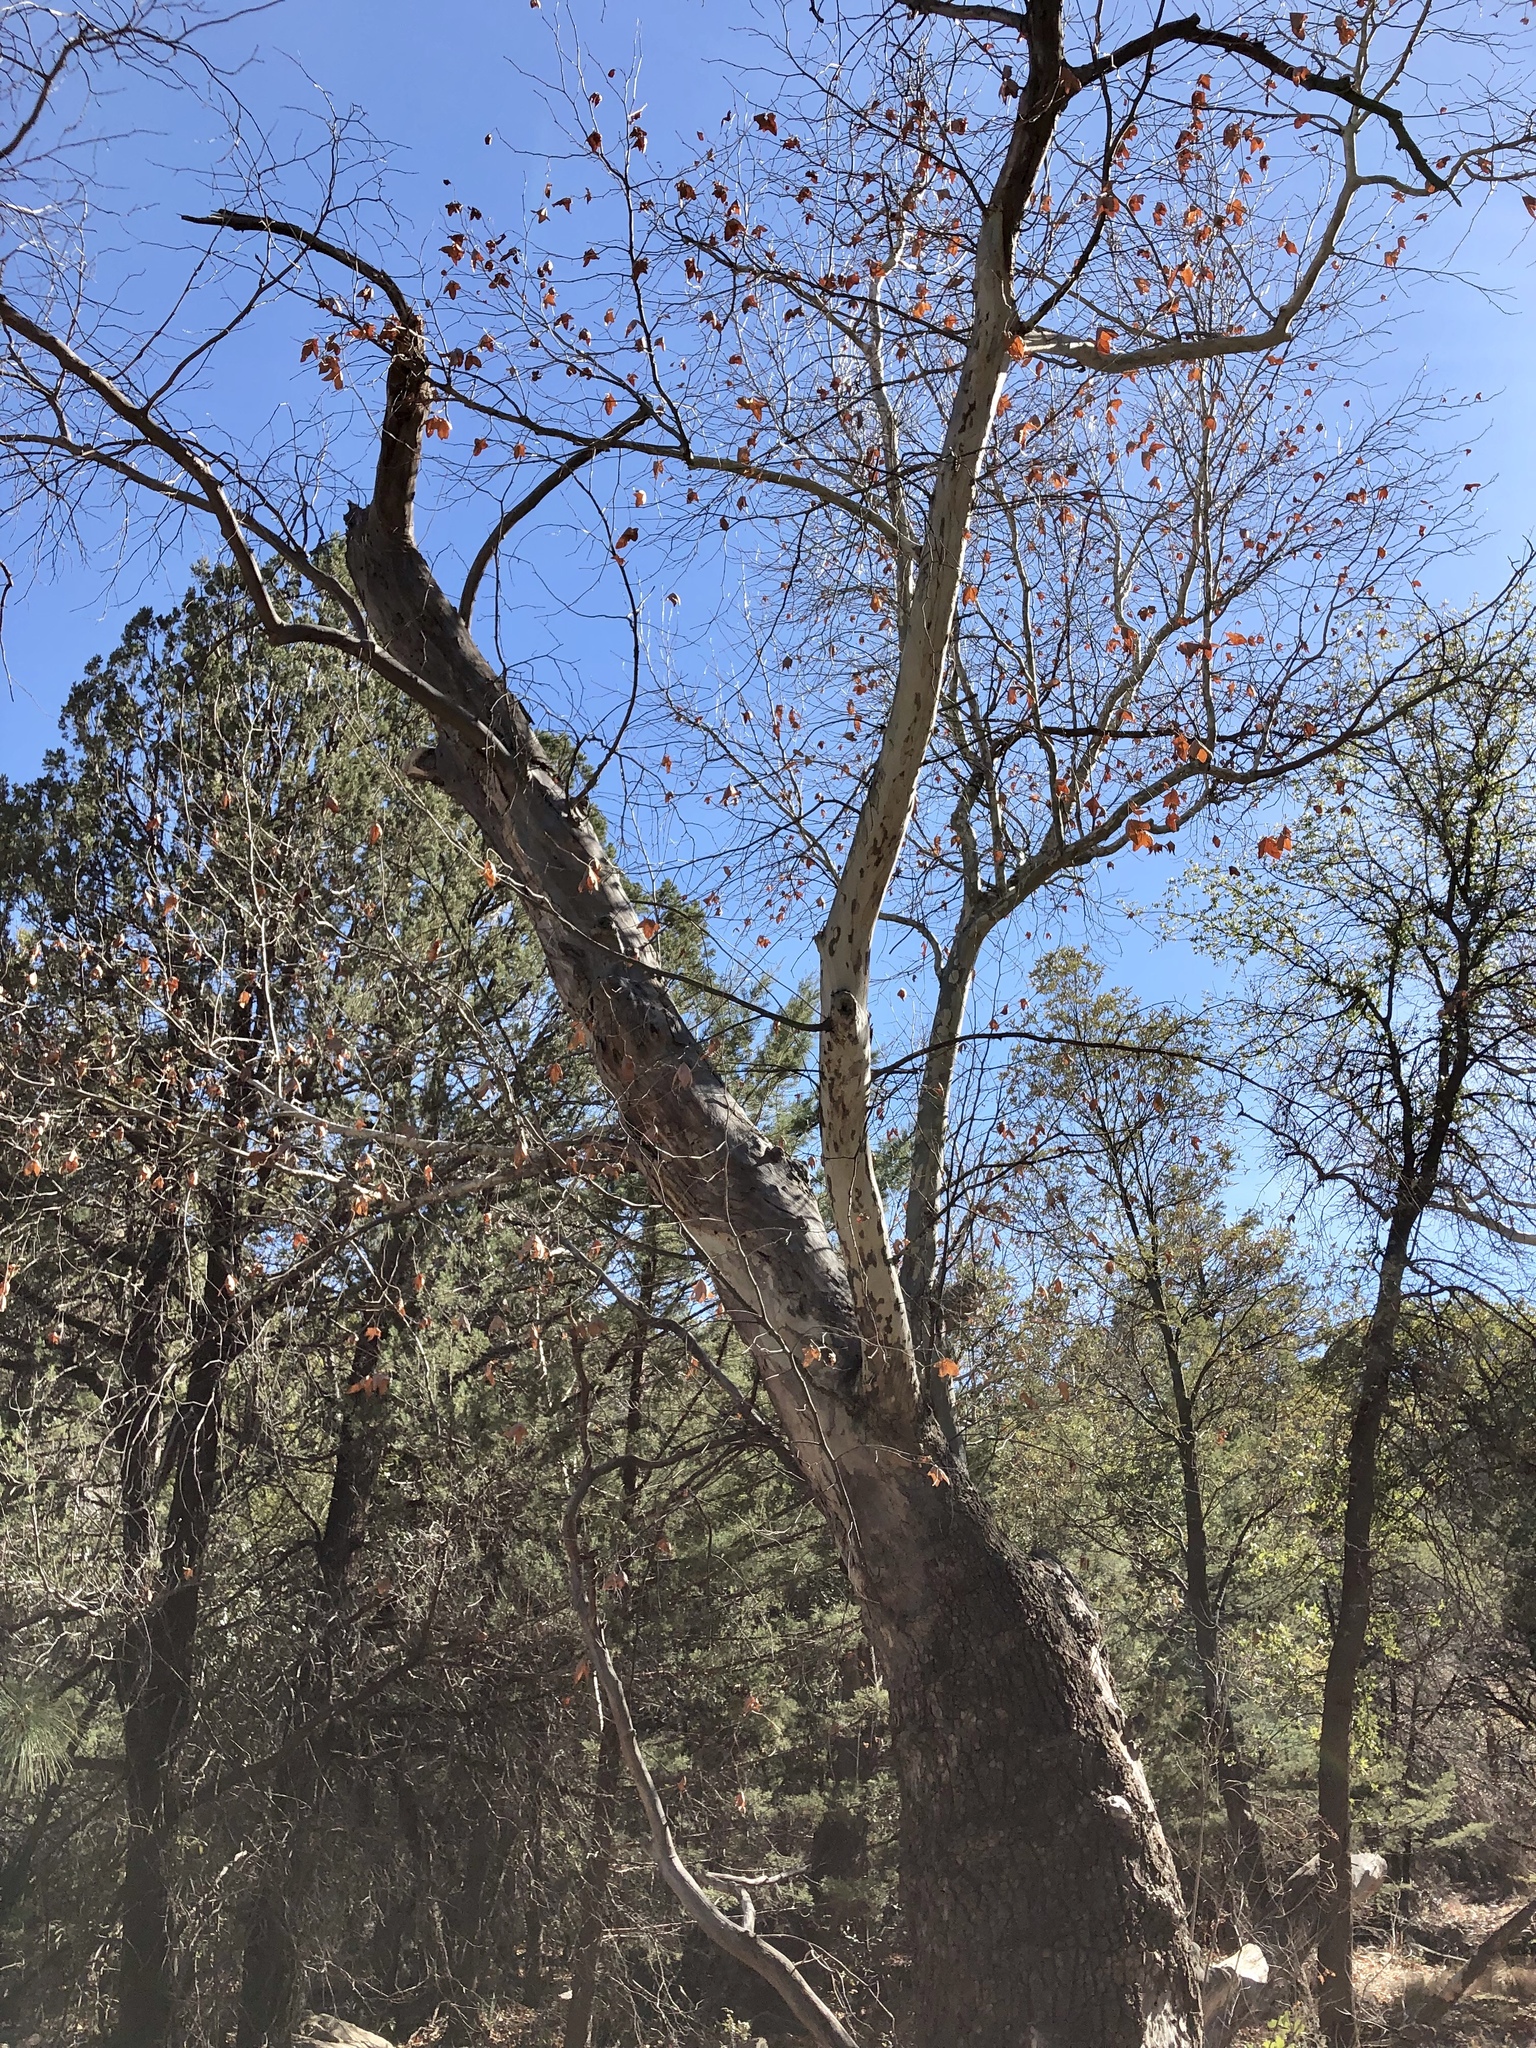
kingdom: Plantae
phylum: Tracheophyta
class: Magnoliopsida
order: Proteales
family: Platanaceae
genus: Platanus
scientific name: Platanus wrightii
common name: Arizona sycamore
